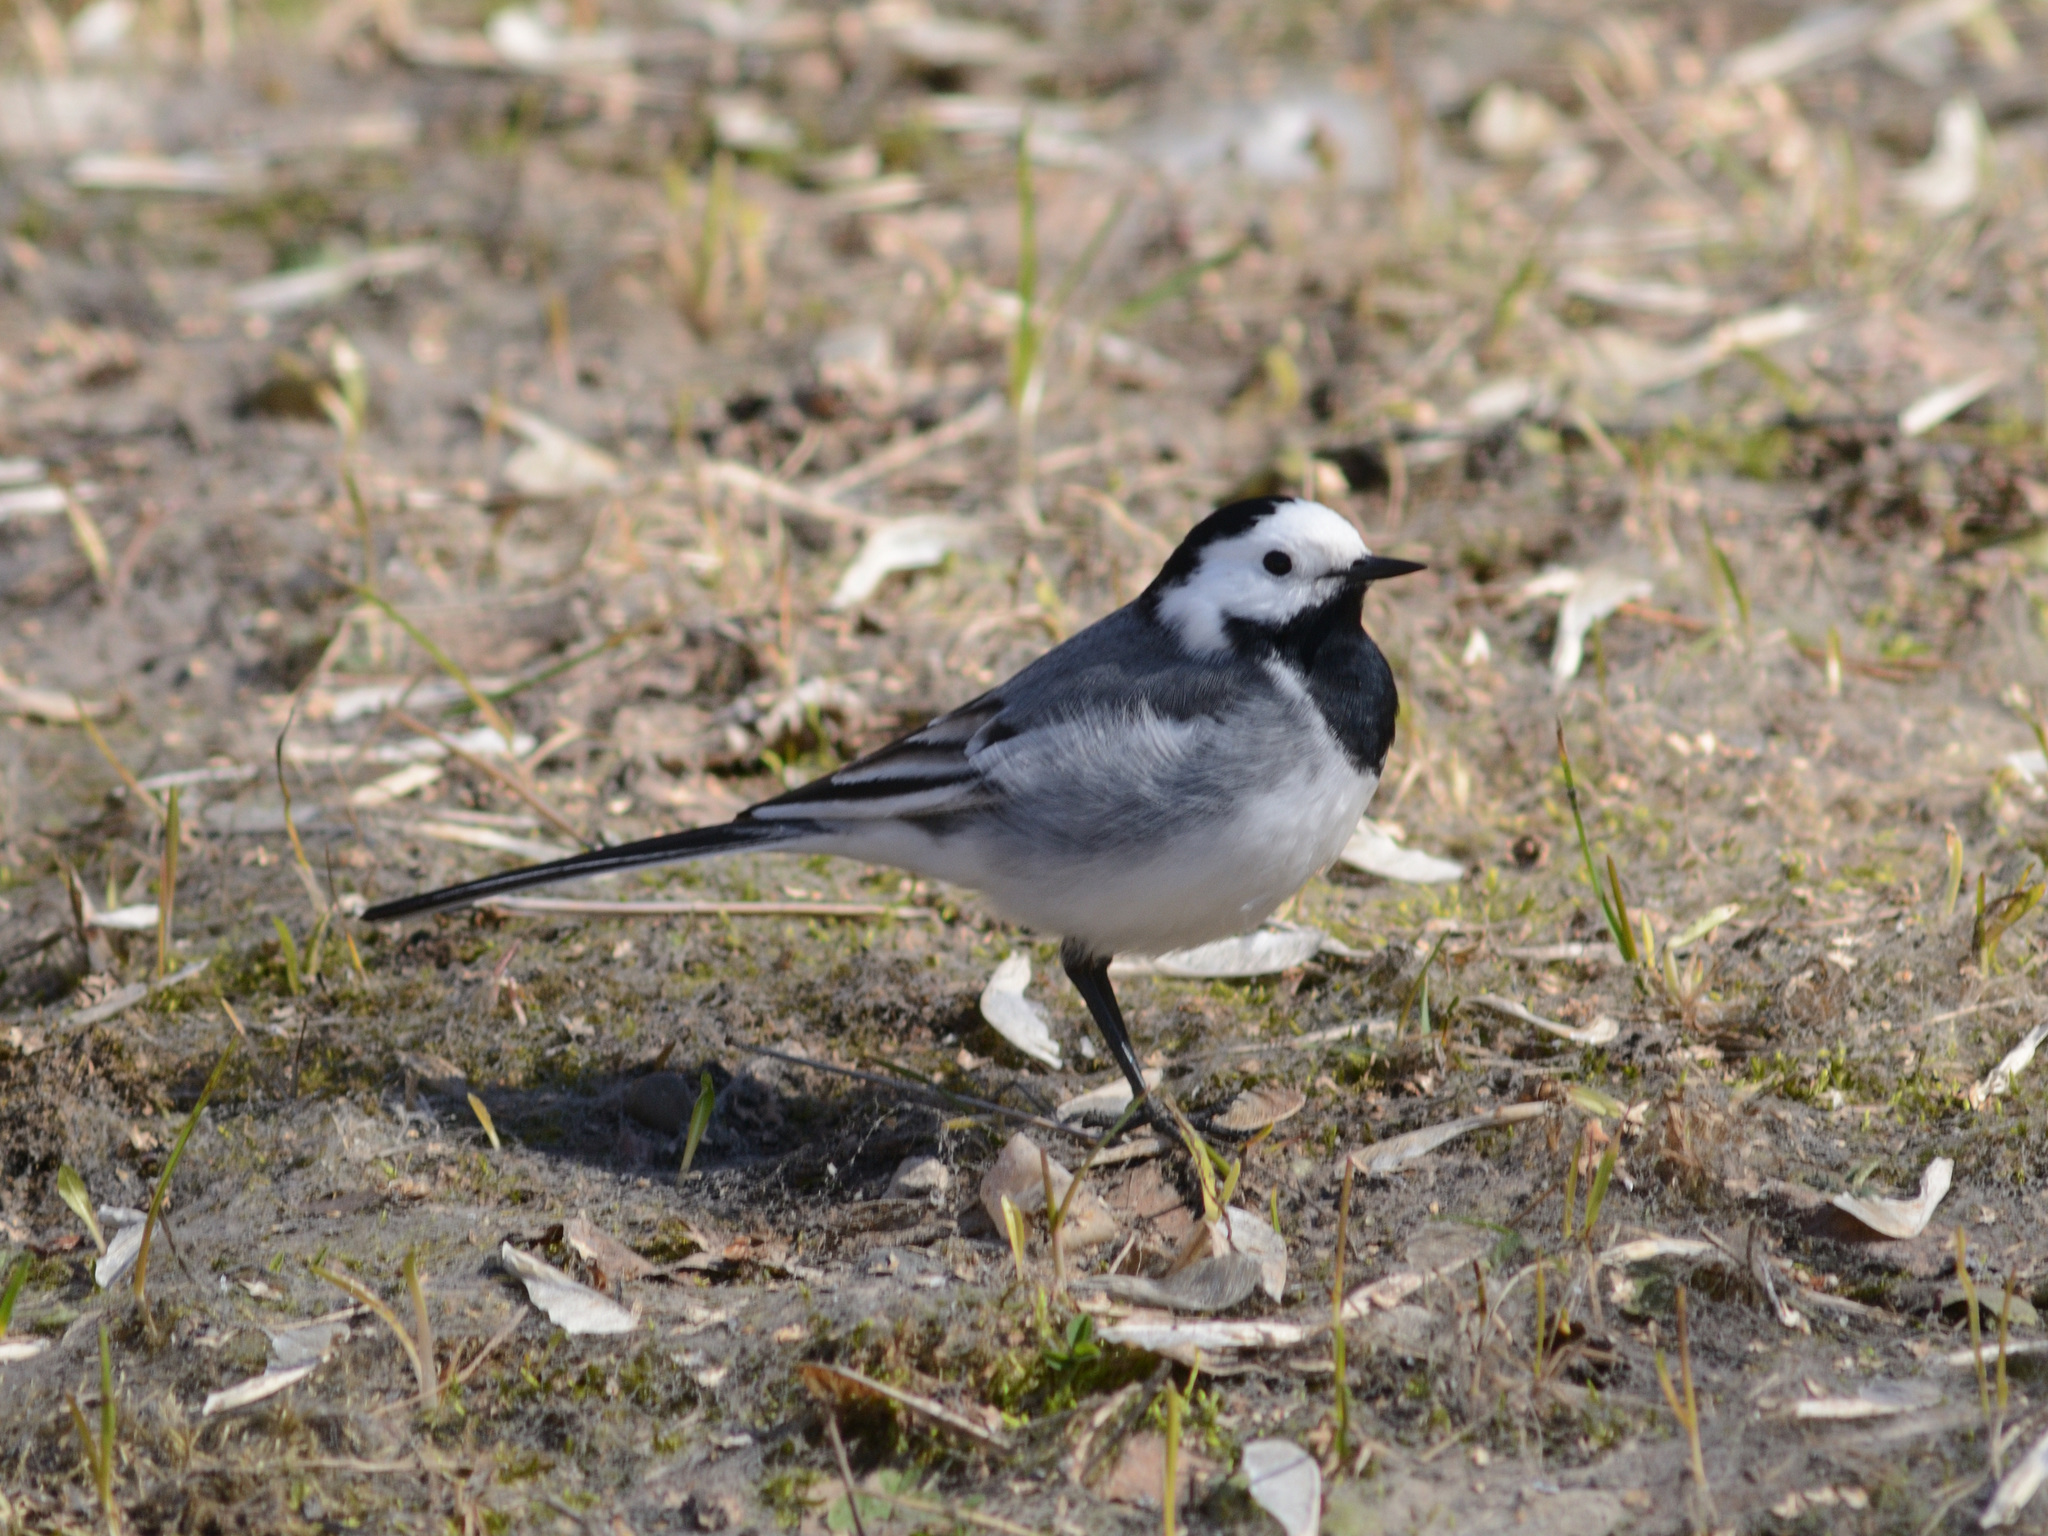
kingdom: Animalia
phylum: Chordata
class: Aves
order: Passeriformes
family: Motacillidae
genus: Motacilla
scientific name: Motacilla alba
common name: White wagtail
